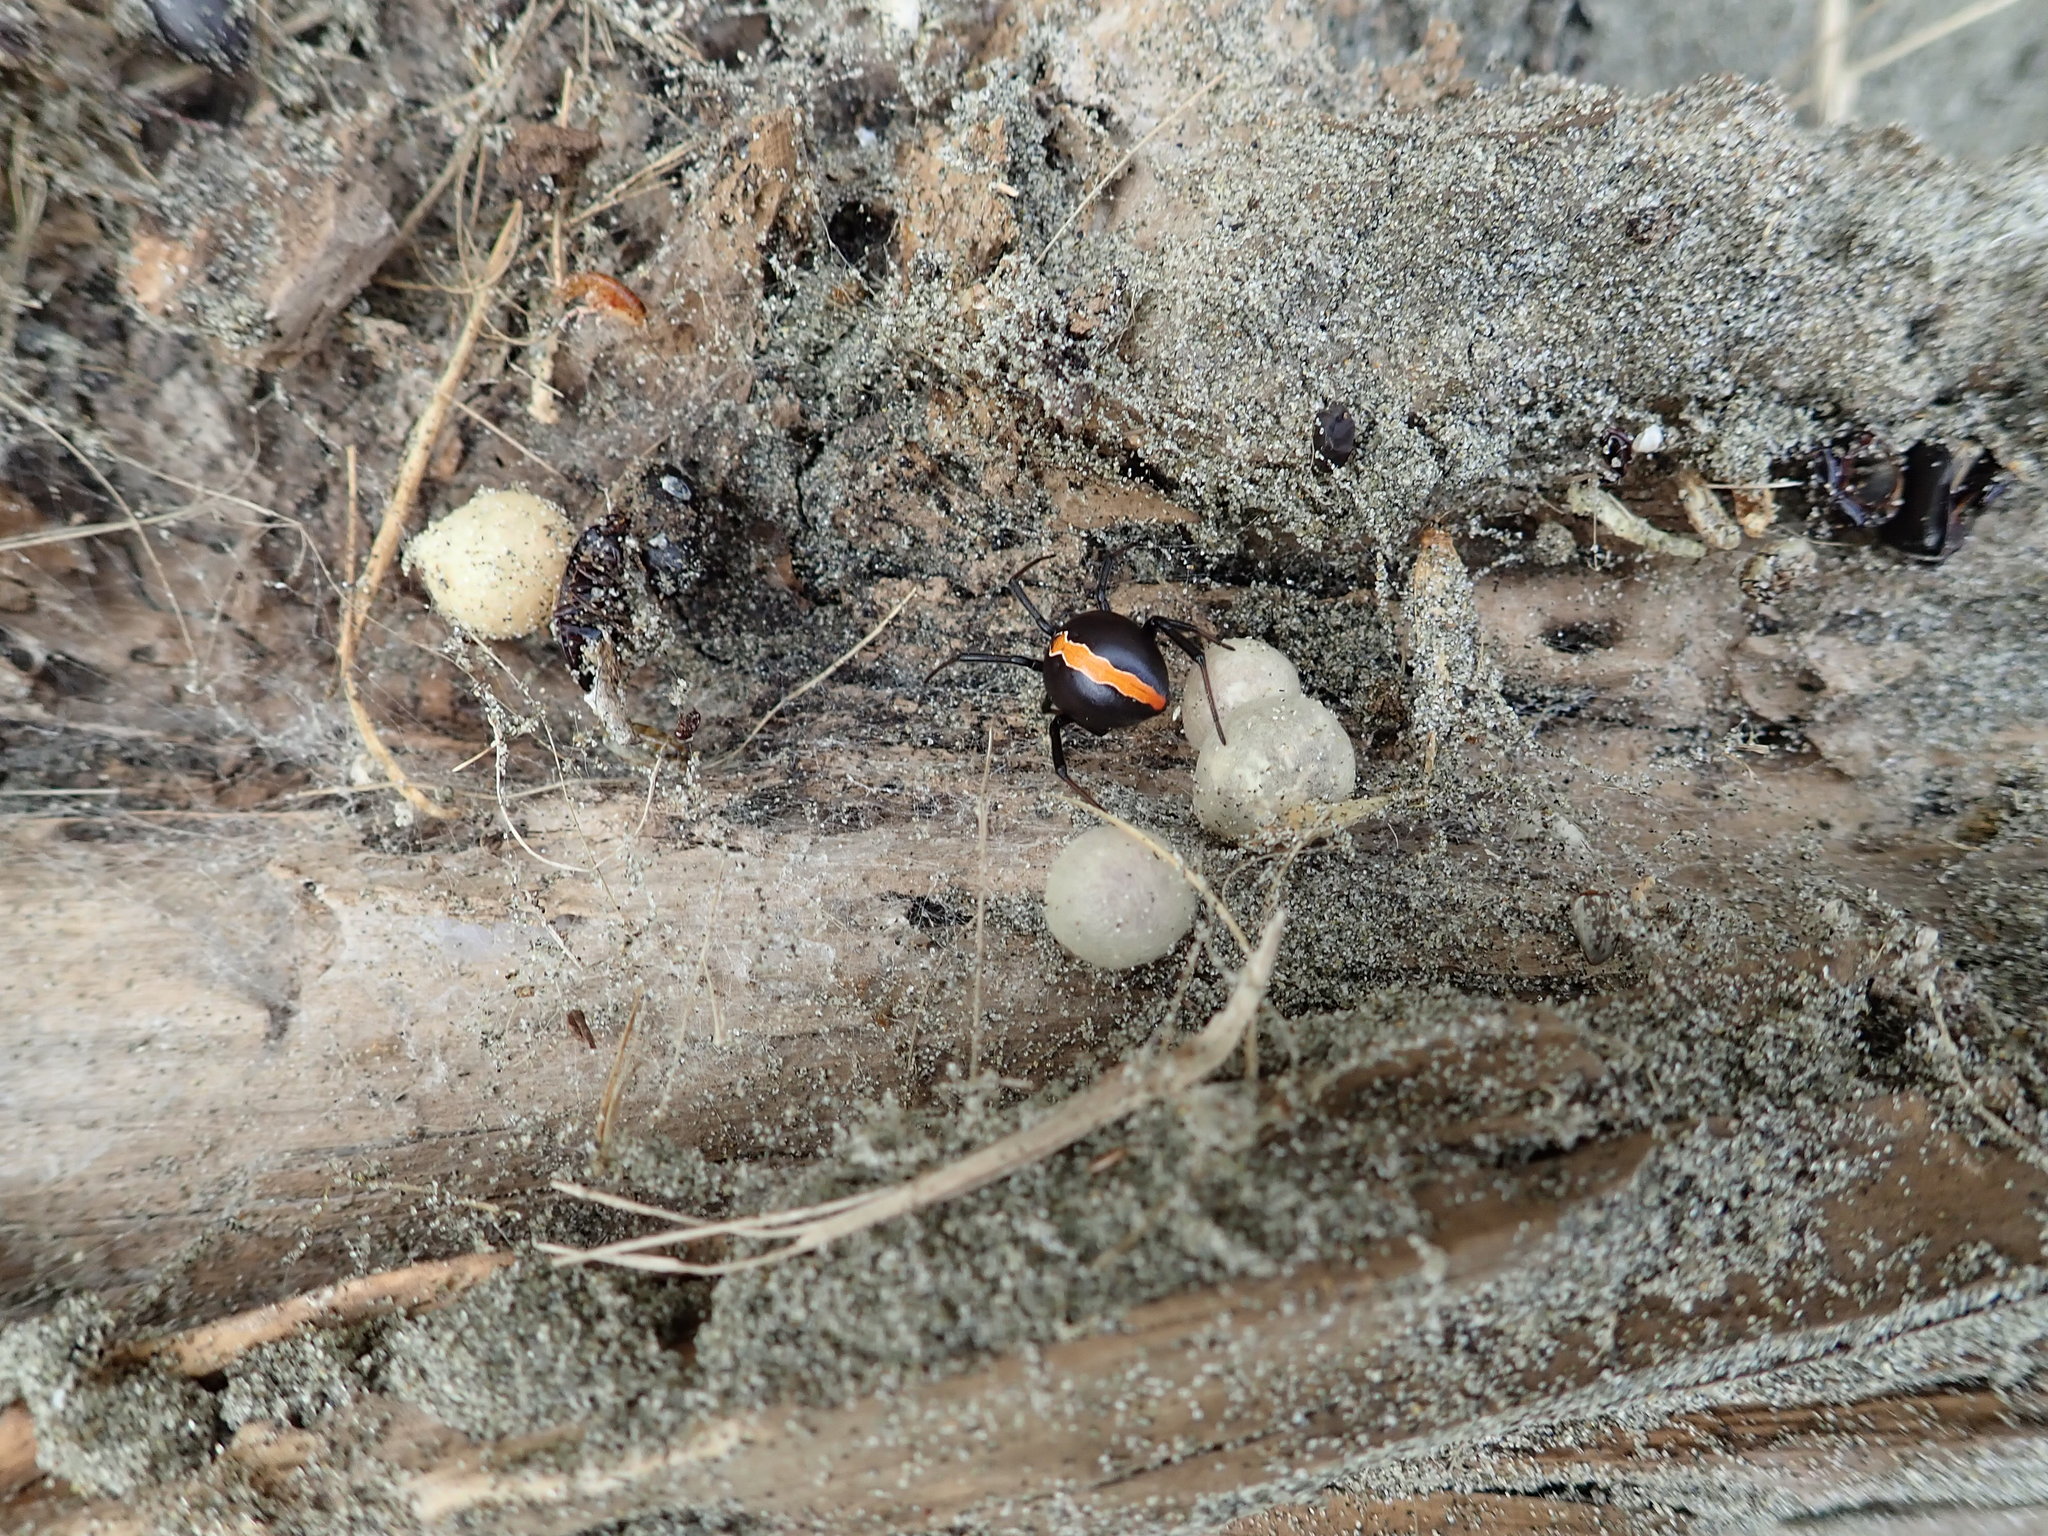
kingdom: Animalia
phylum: Arthropoda
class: Arachnida
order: Araneae
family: Theridiidae
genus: Latrodectus
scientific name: Latrodectus katipo
